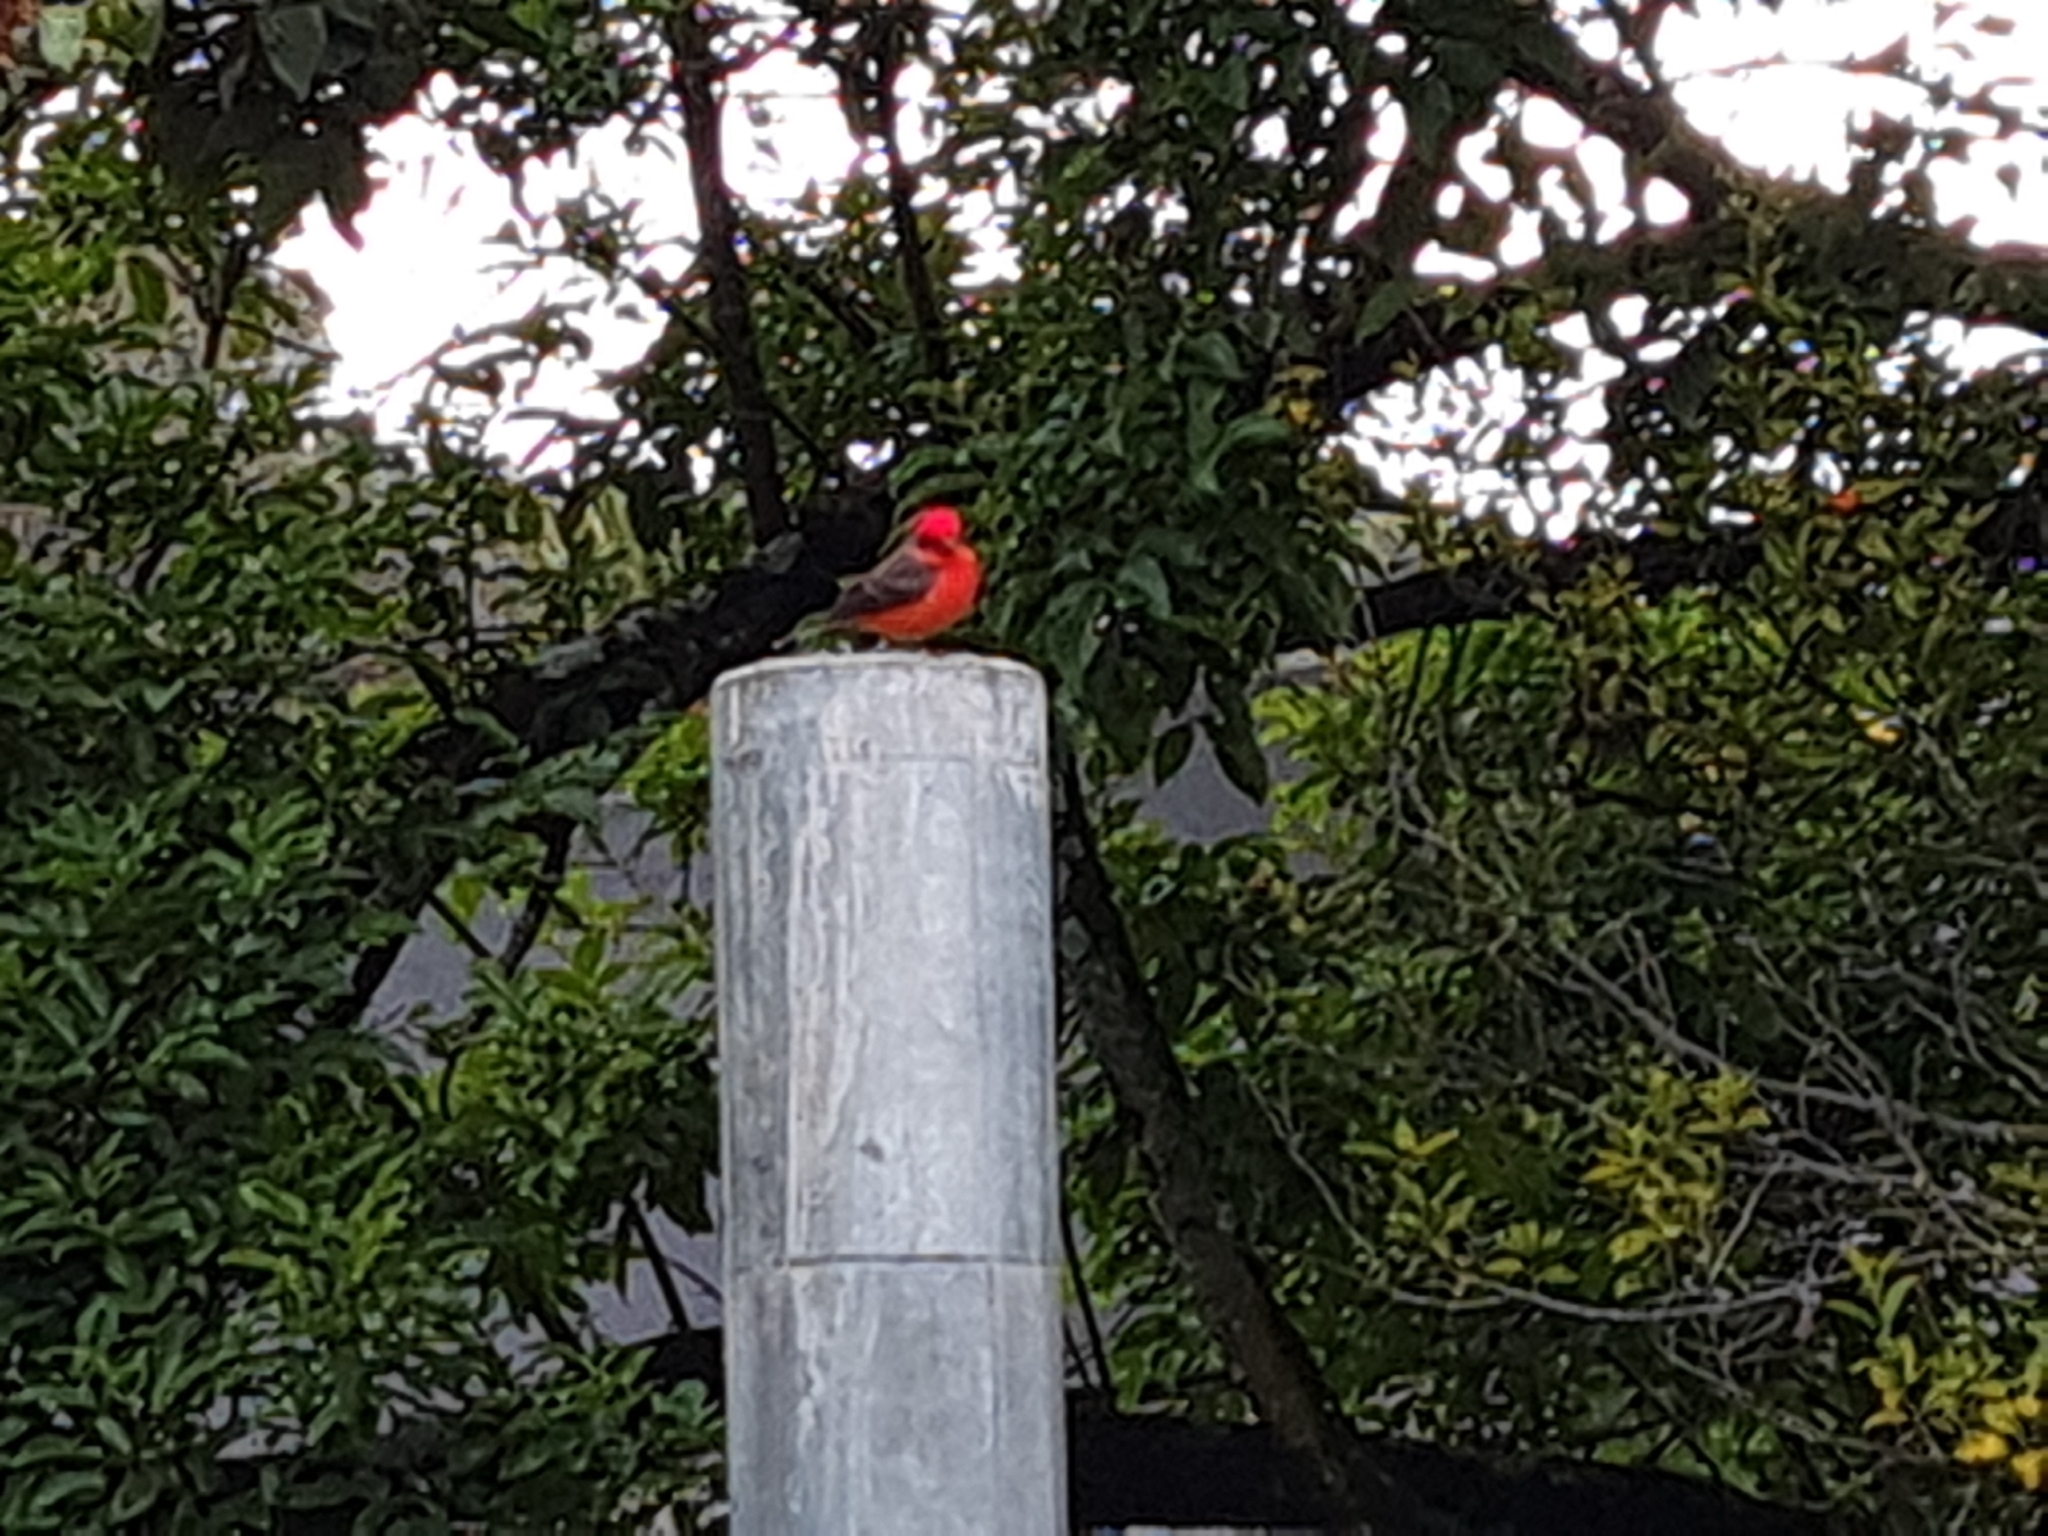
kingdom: Animalia
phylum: Chordata
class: Aves
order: Passeriformes
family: Tyrannidae
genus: Pyrocephalus
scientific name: Pyrocephalus rubinus
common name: Vermilion flycatcher
